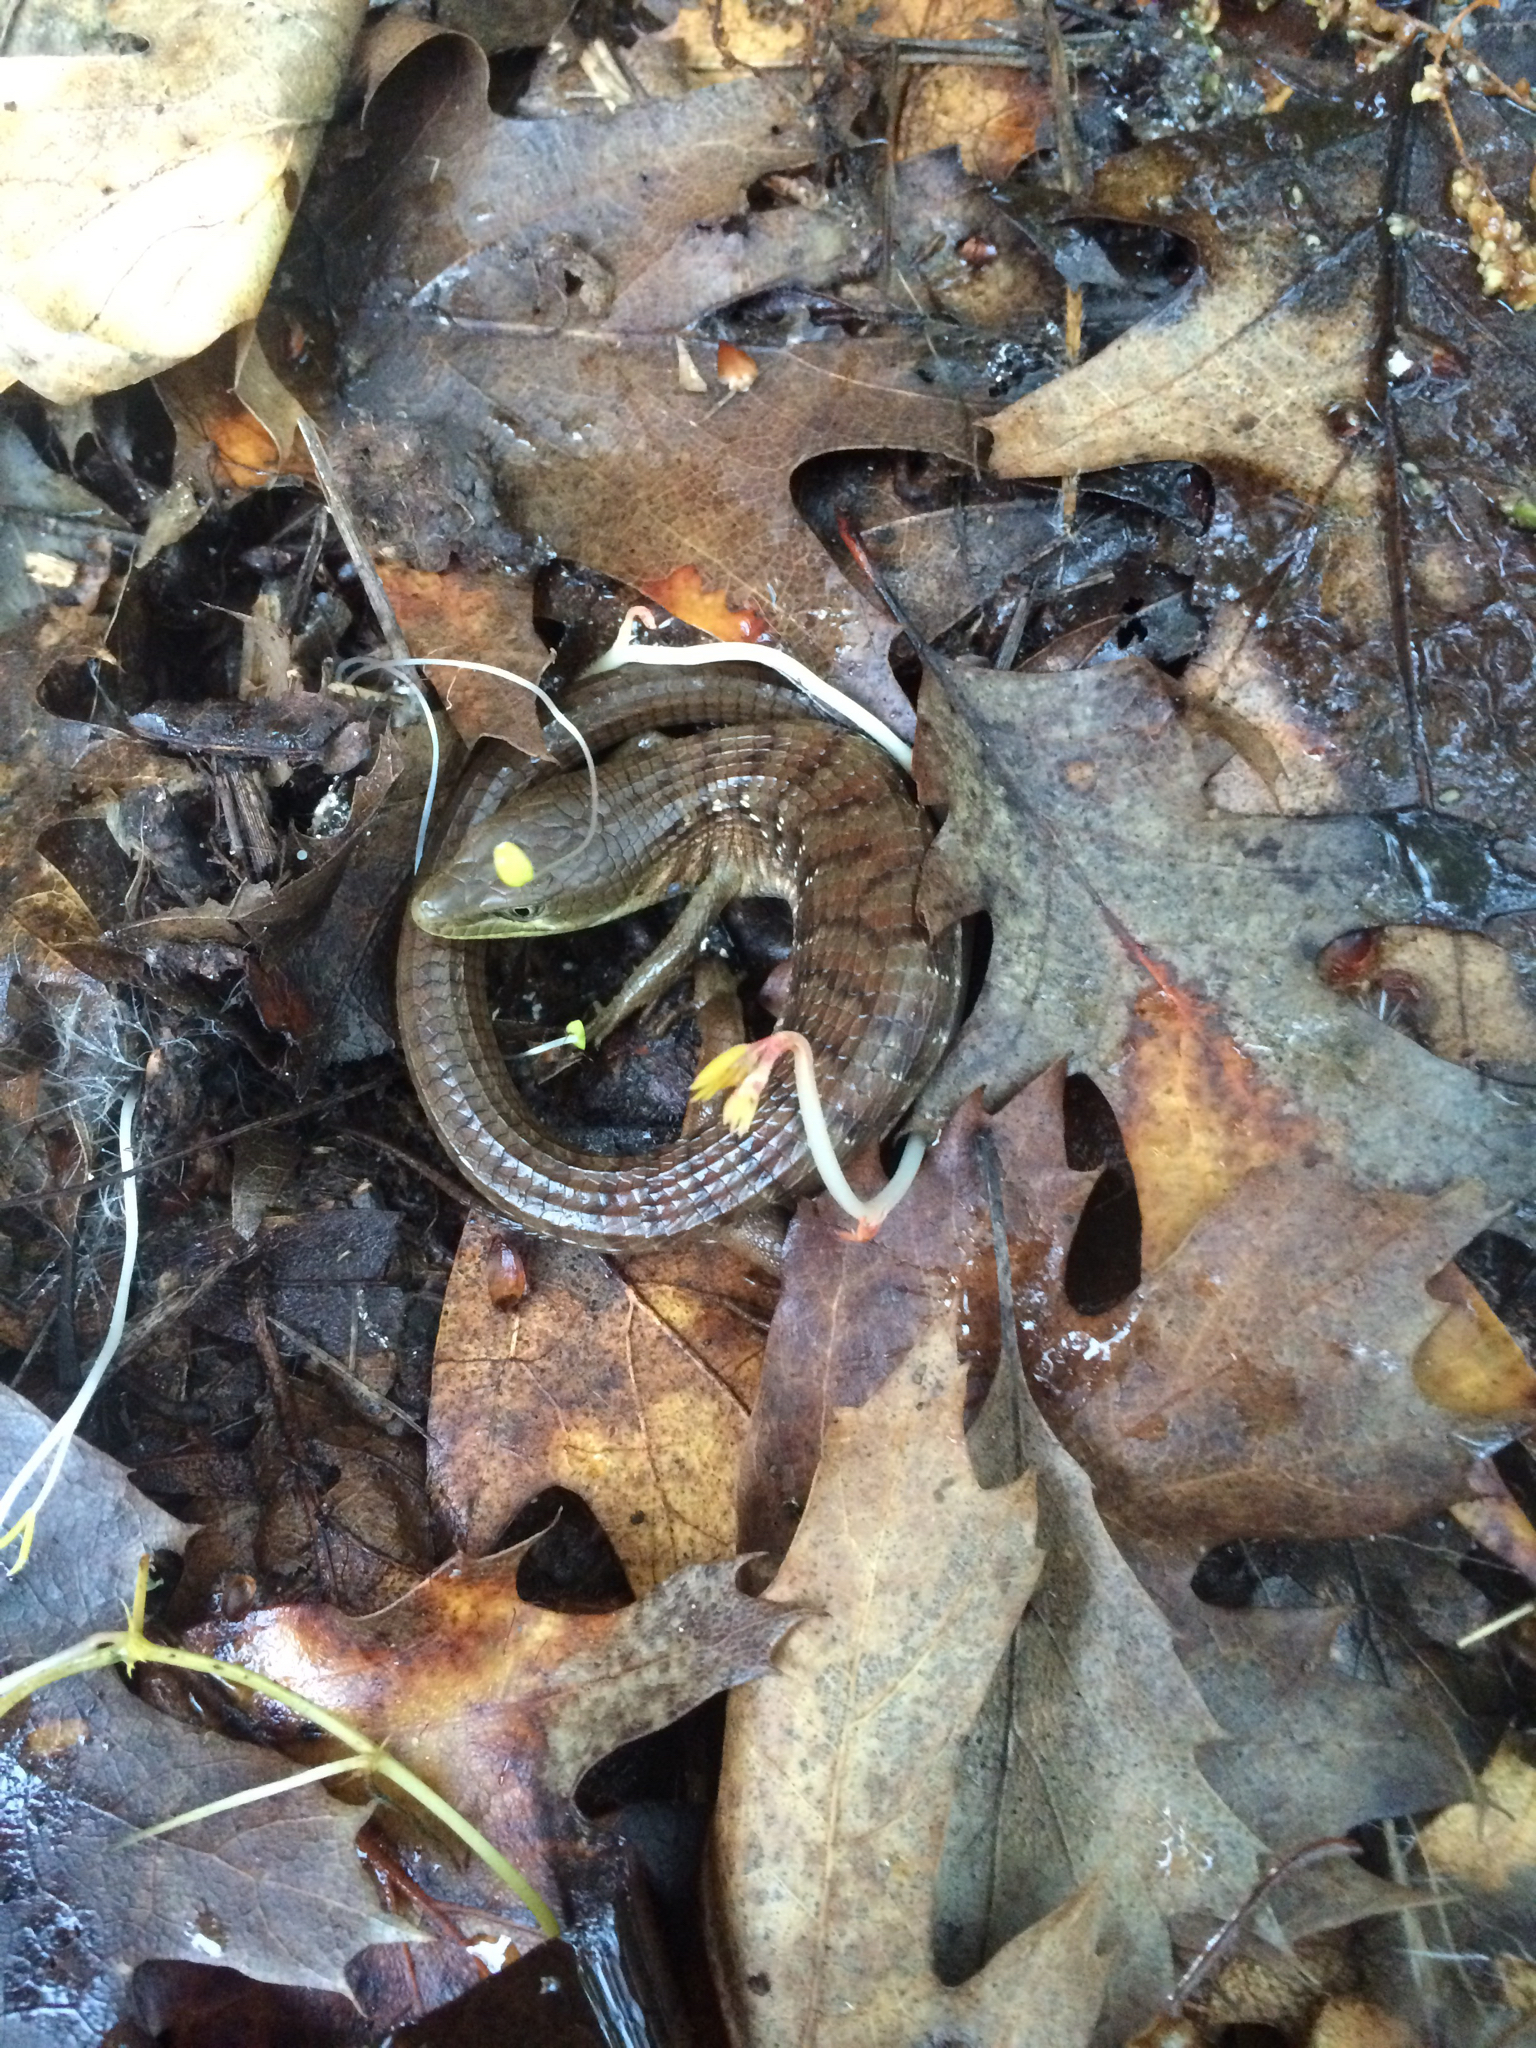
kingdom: Animalia
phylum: Chordata
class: Squamata
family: Anguidae
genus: Elgaria
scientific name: Elgaria multicarinata
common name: Southern alligator lizard
